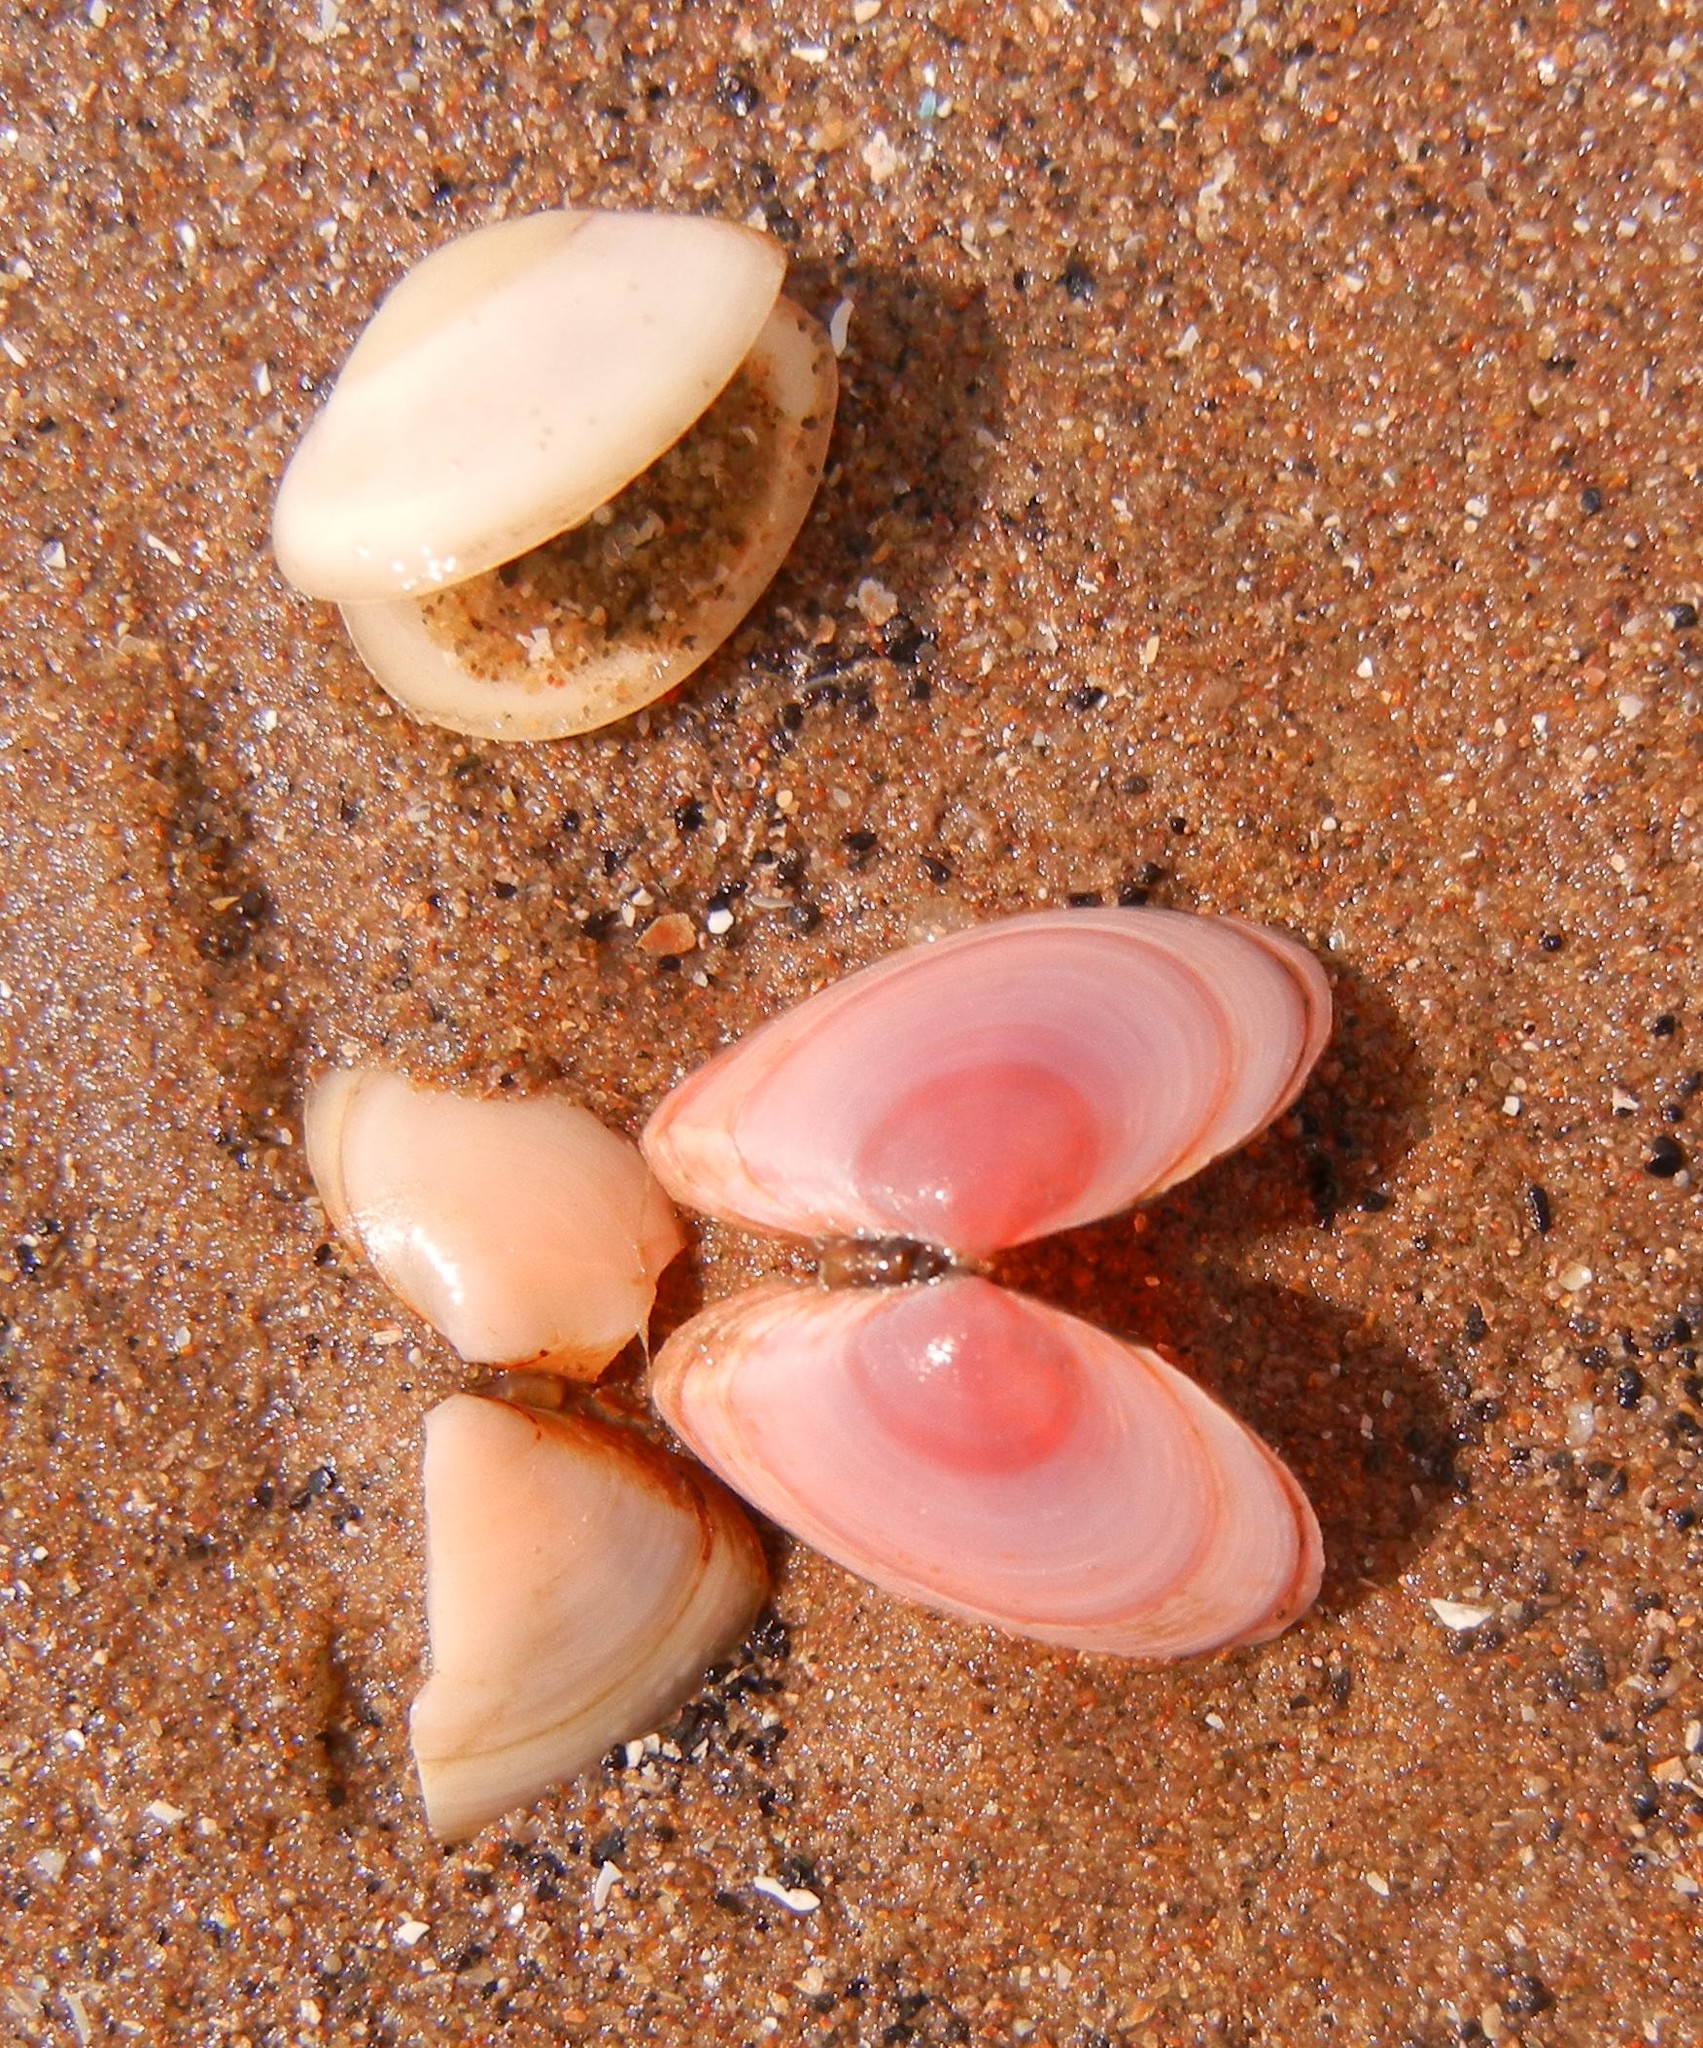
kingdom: Animalia
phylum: Mollusca
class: Bivalvia
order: Cardiida
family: Tellinidae
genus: Macoma
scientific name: Macoma balthica
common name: Baltic tellin
